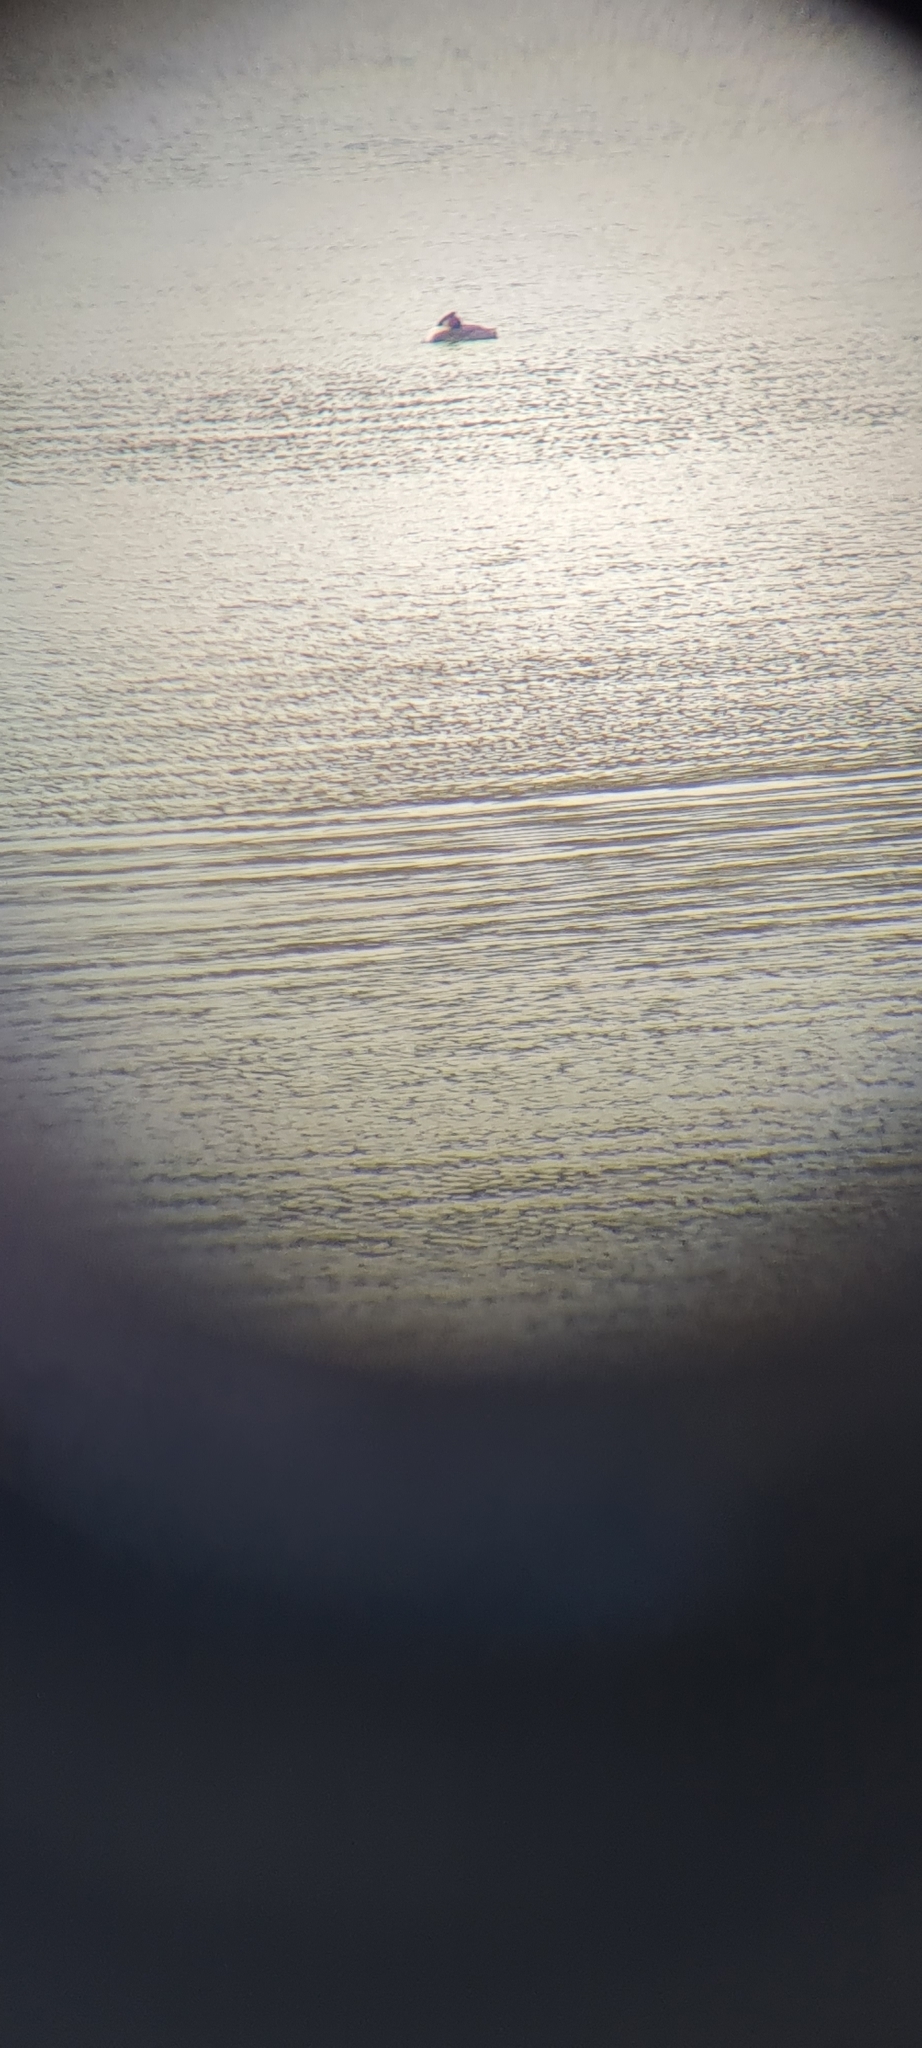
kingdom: Animalia
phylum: Chordata
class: Aves
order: Podicipediformes
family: Podicipedidae
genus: Podiceps
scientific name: Podiceps cristatus
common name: Great crested grebe
